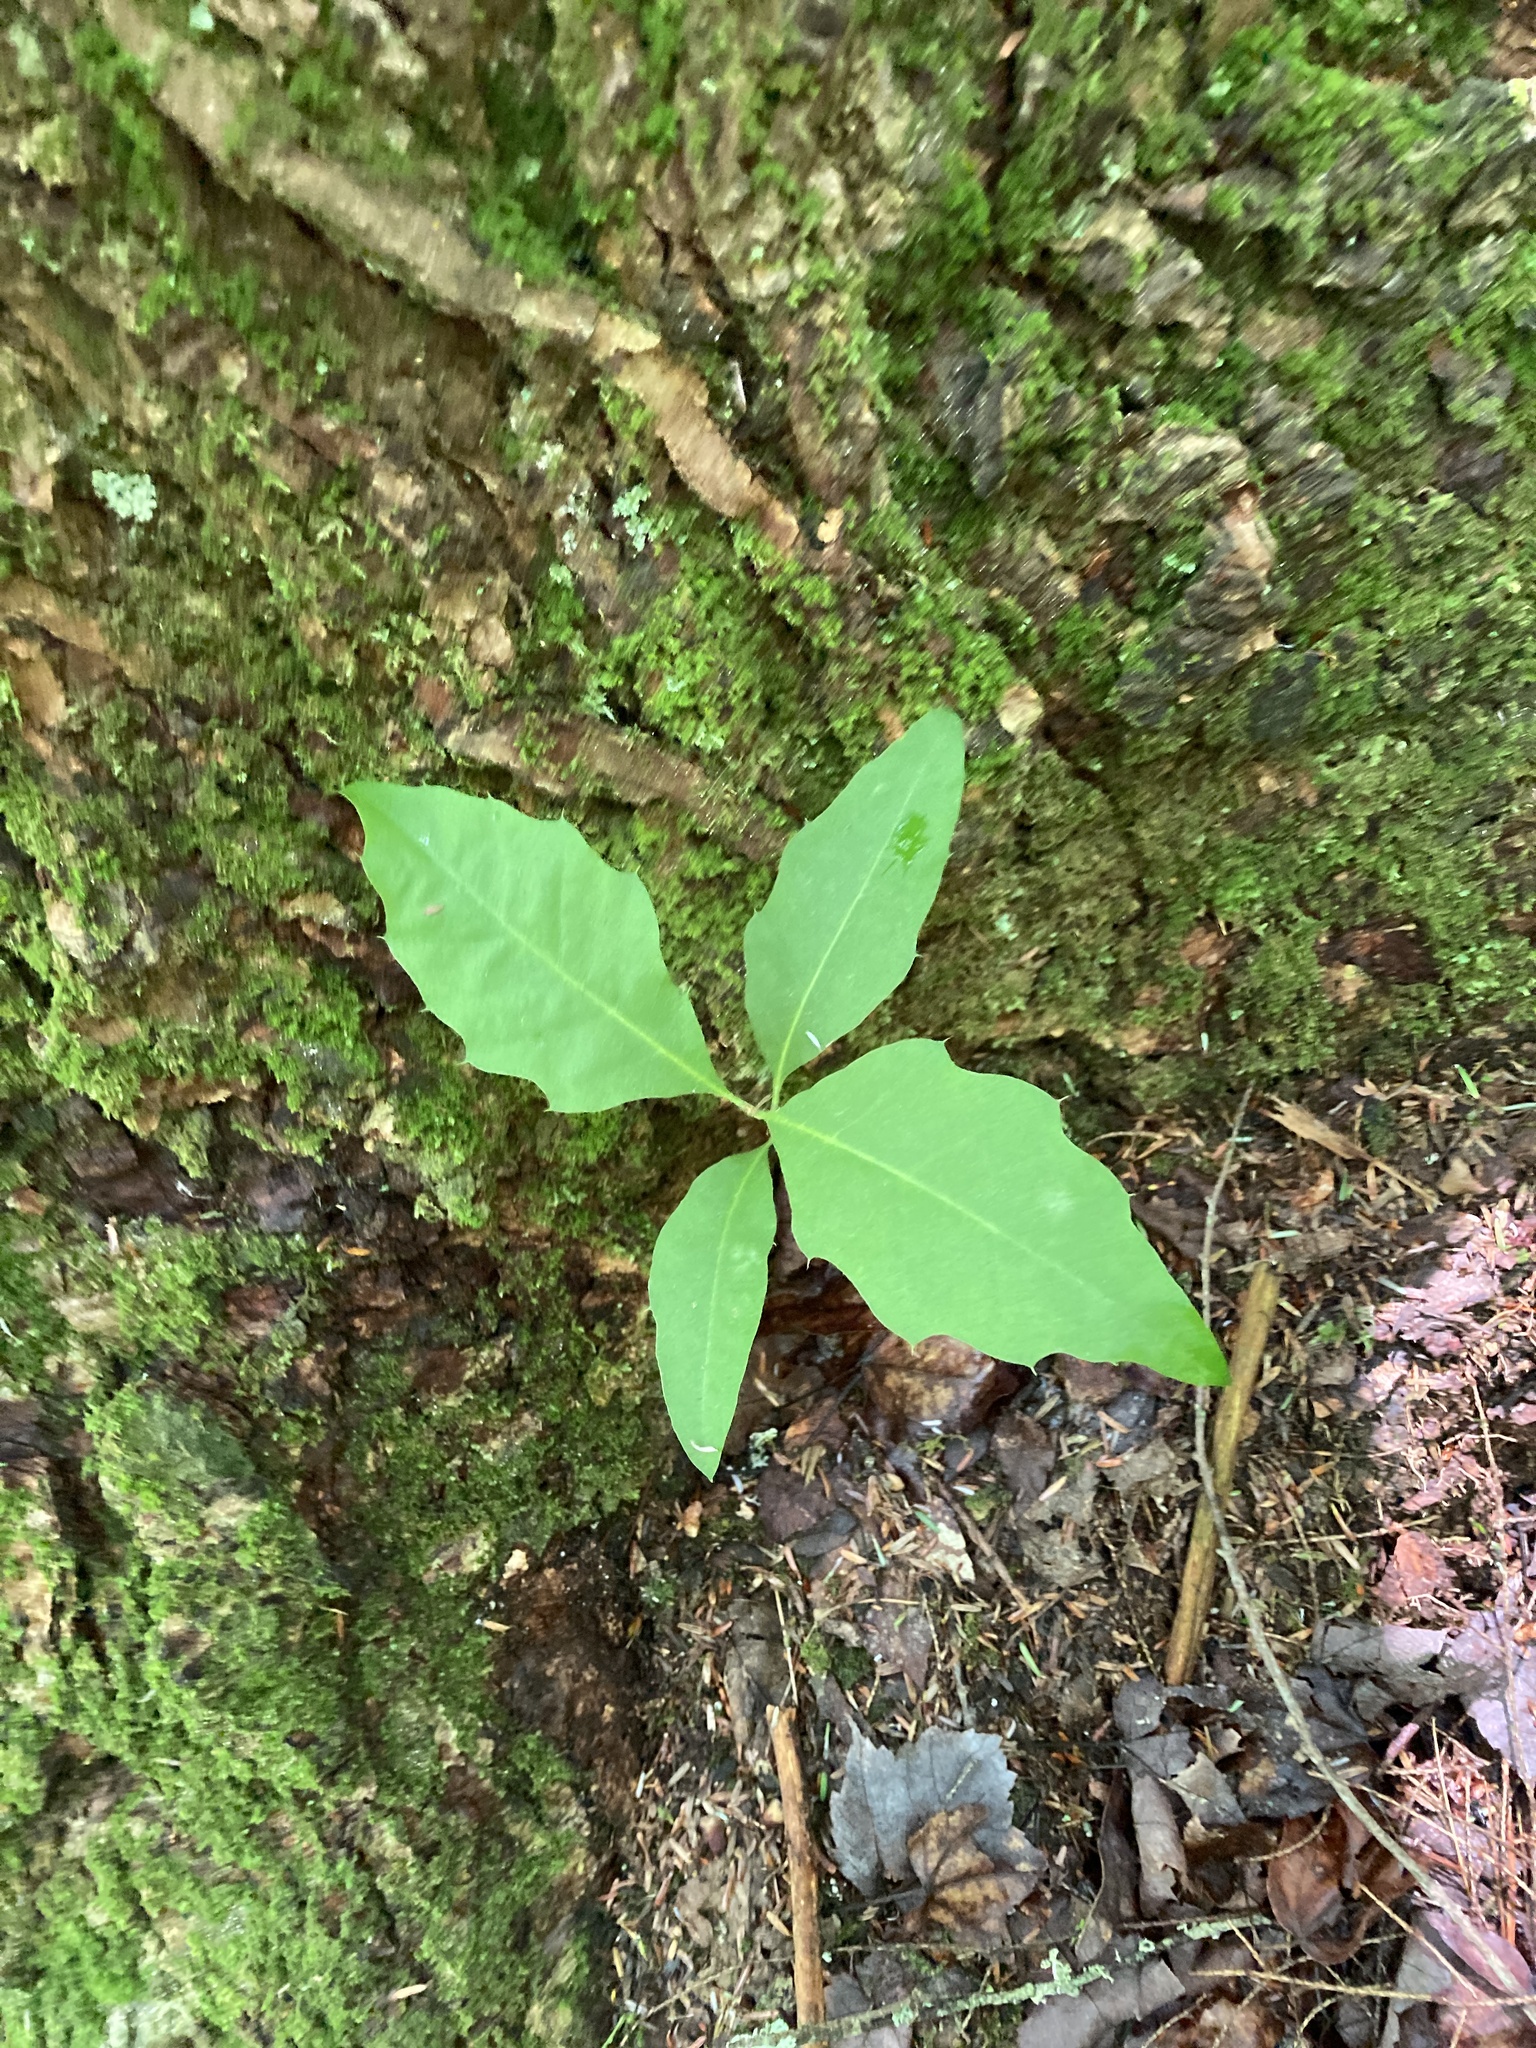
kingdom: Plantae
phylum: Tracheophyta
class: Magnoliopsida
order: Fagales
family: Fagaceae
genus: Quercus
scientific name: Quercus rubra
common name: Red oak
